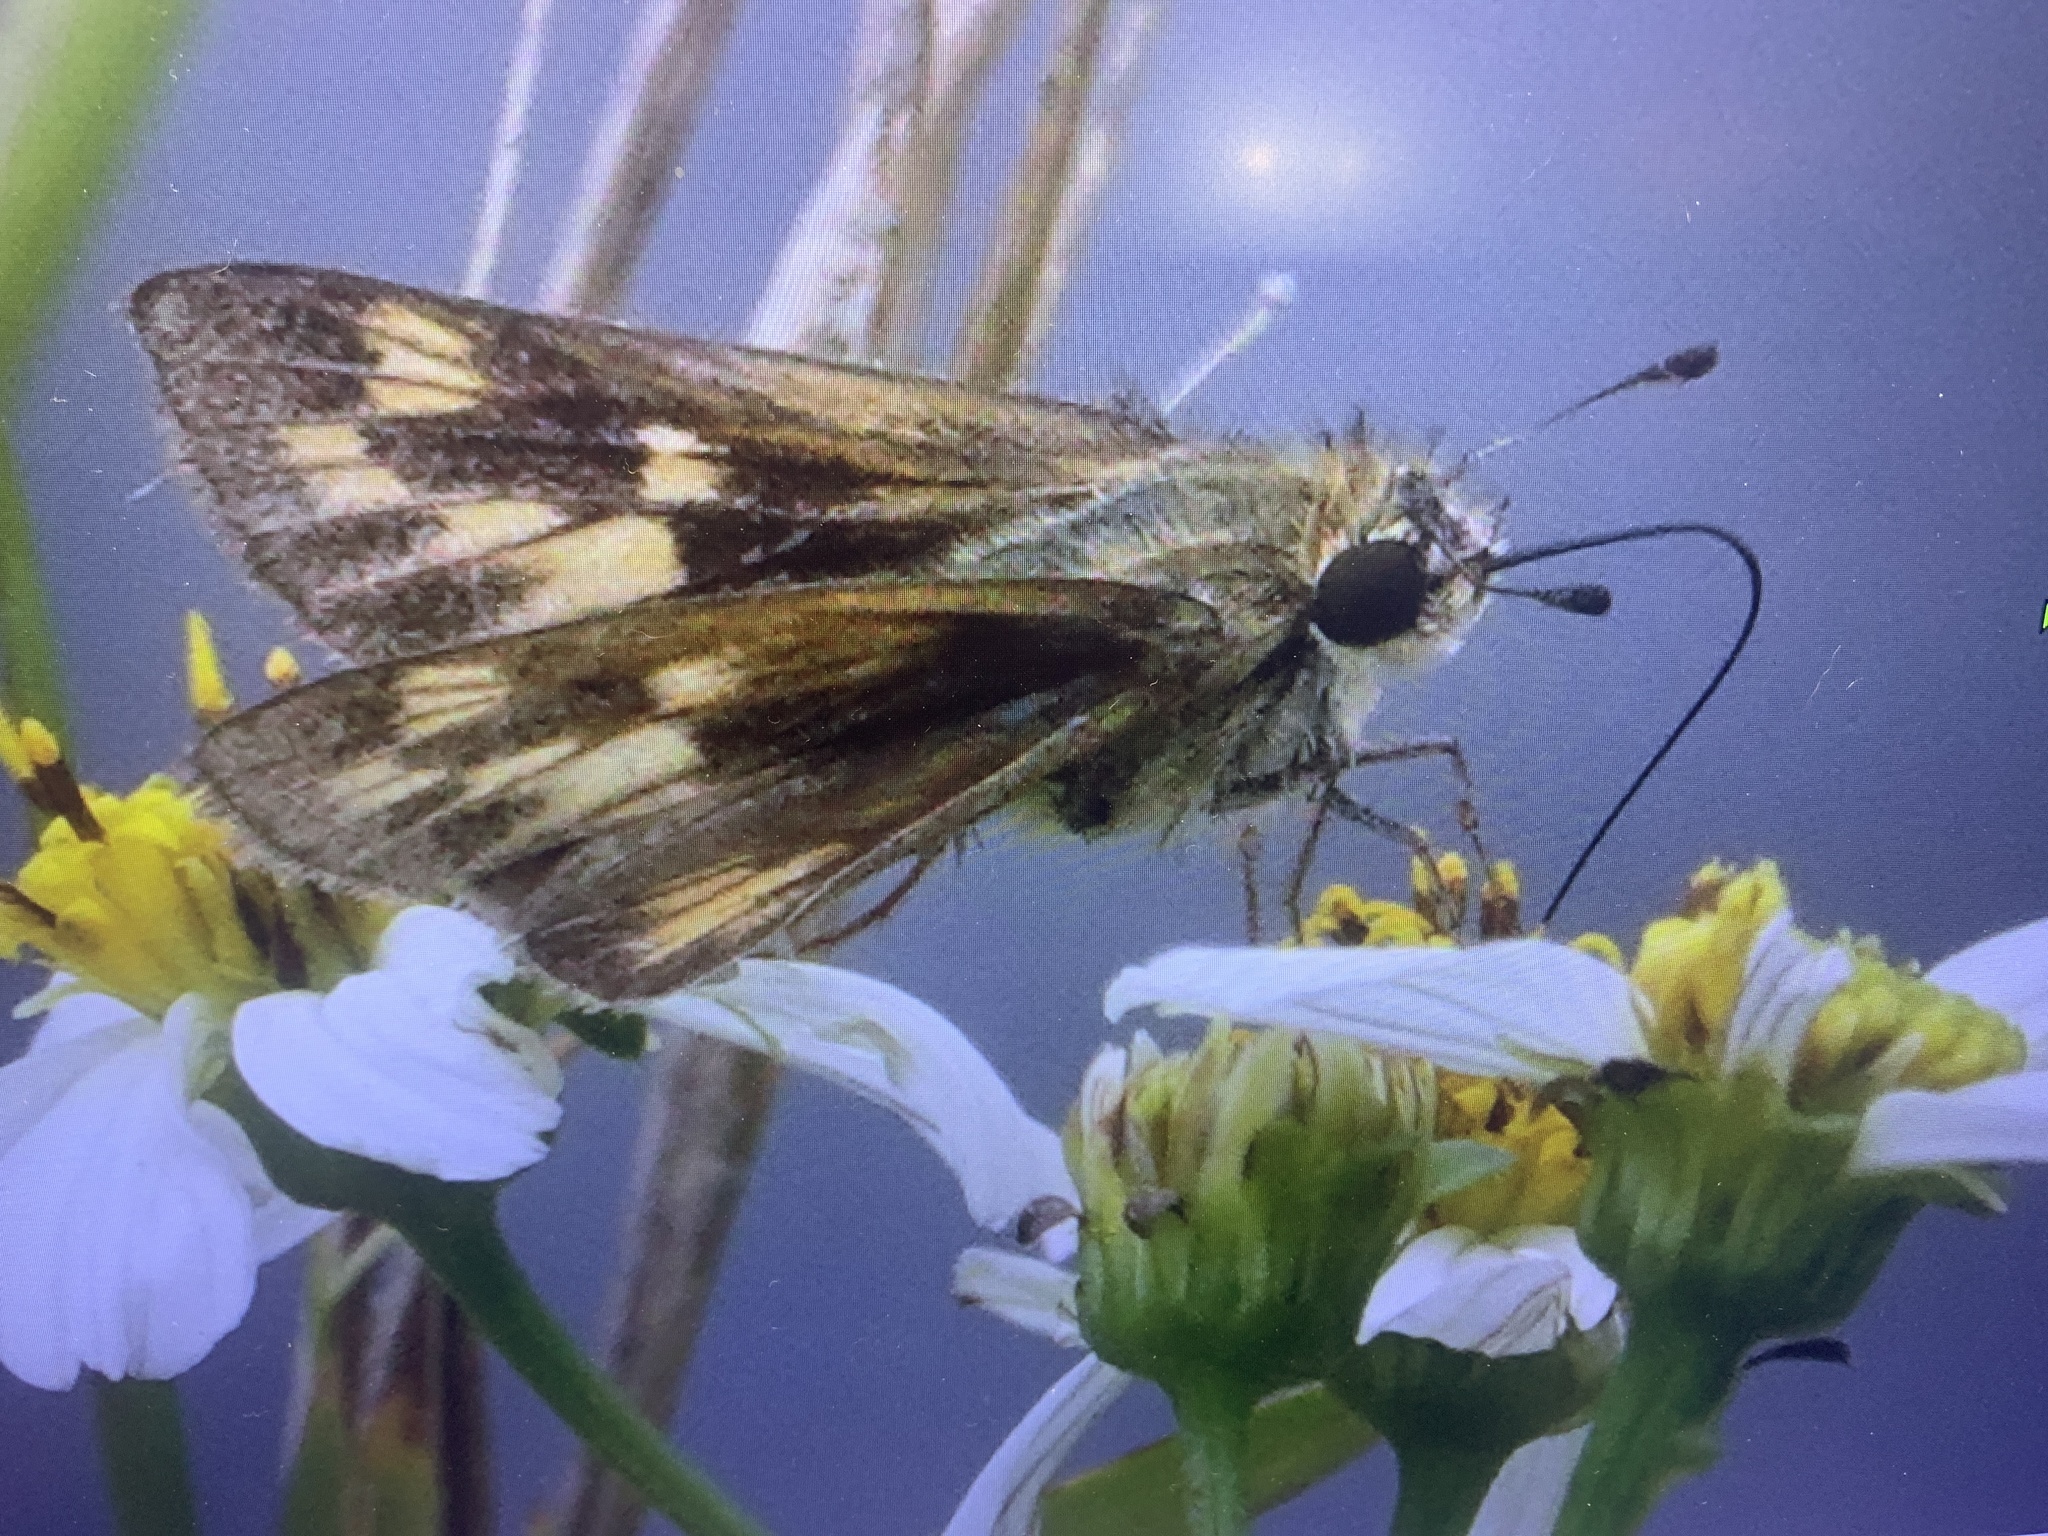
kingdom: Animalia
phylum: Arthropoda
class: Insecta
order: Lepidoptera
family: Hesperiidae
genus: Hylephila
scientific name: Hylephila phyleus
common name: Fiery skipper
